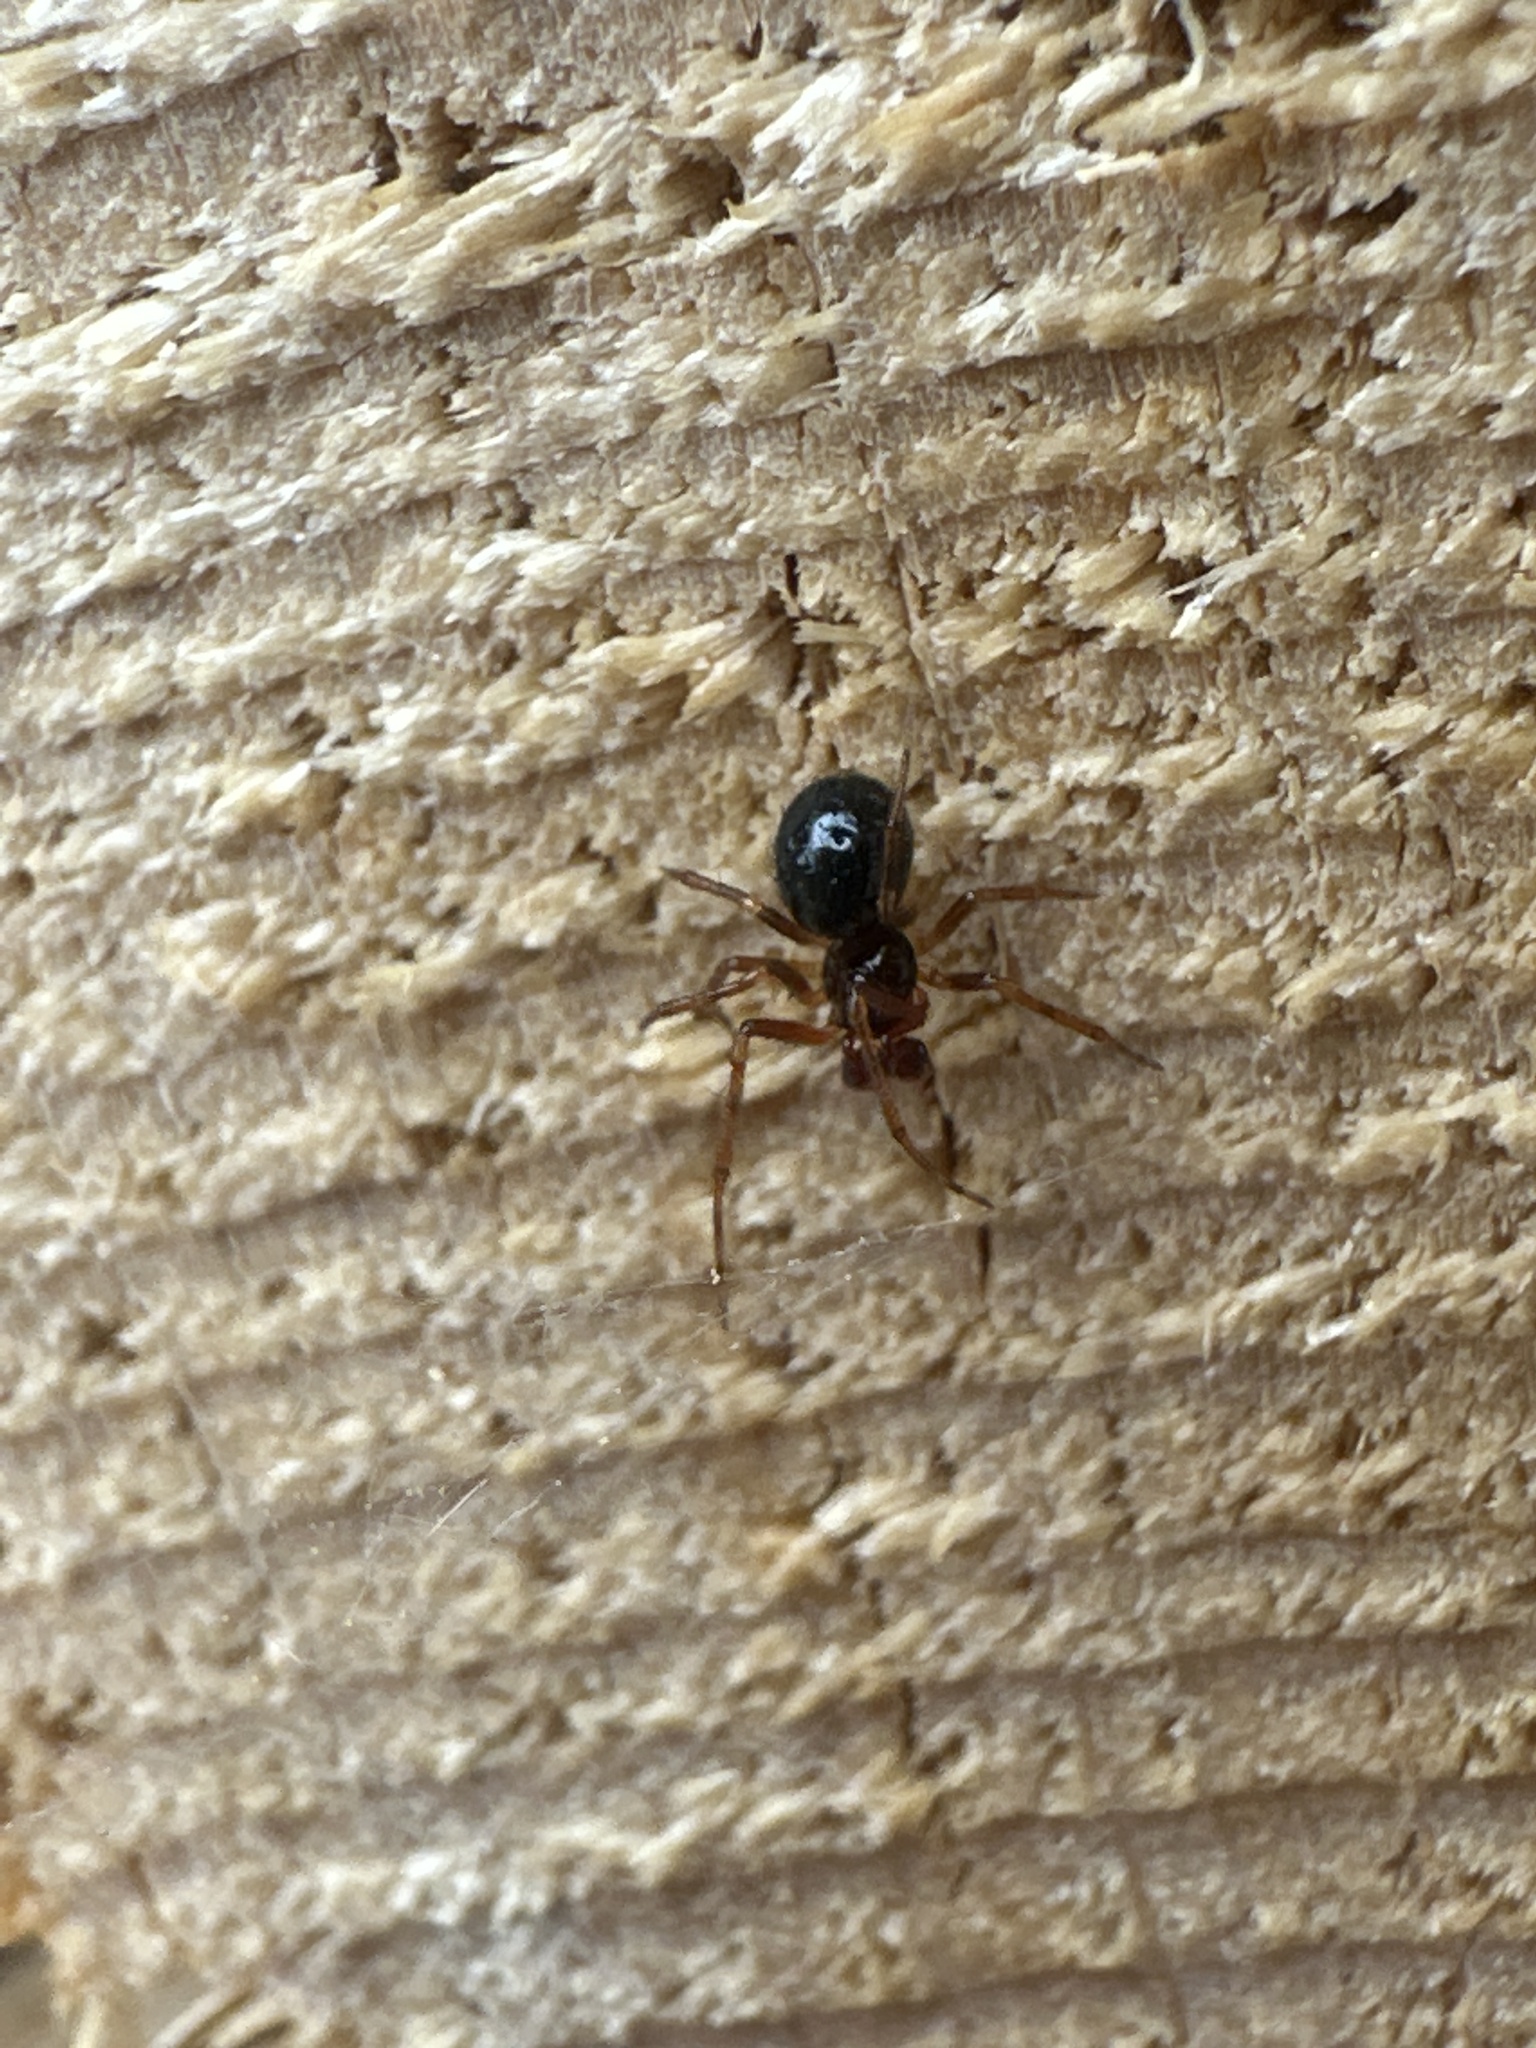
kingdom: Animalia
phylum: Arthropoda
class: Arachnida
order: Araneae
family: Theridiidae
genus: Sardinidion
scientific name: Sardinidion blackwalli
